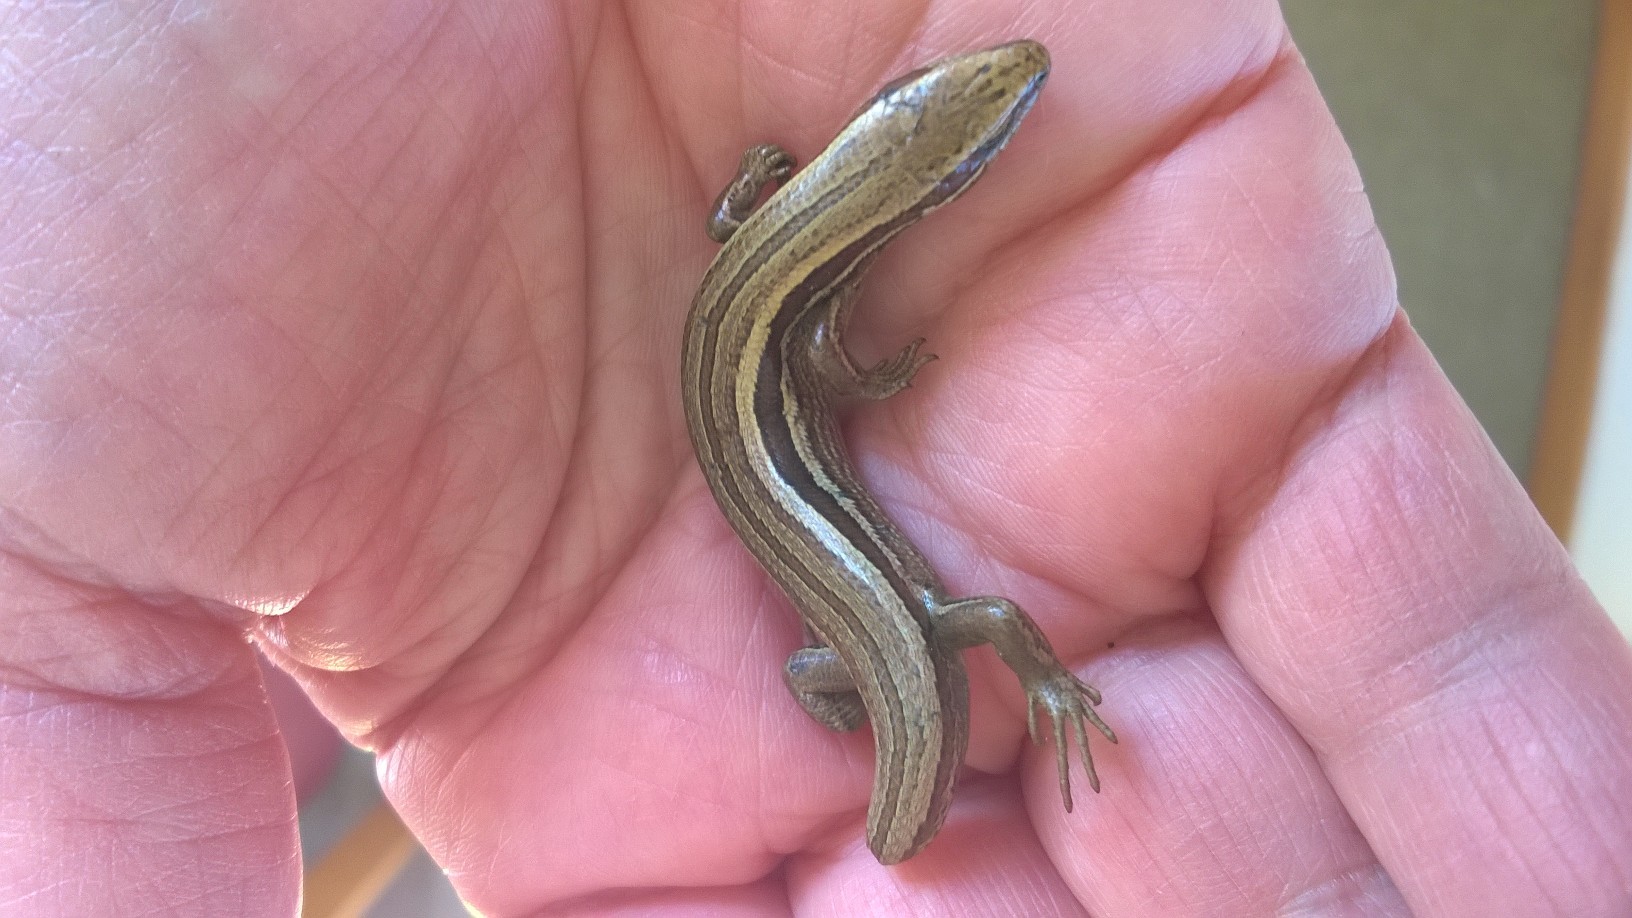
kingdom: Animalia
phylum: Chordata
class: Squamata
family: Scincidae
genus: Oligosoma
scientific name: Oligosoma polychroma
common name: Common new zealand skink
